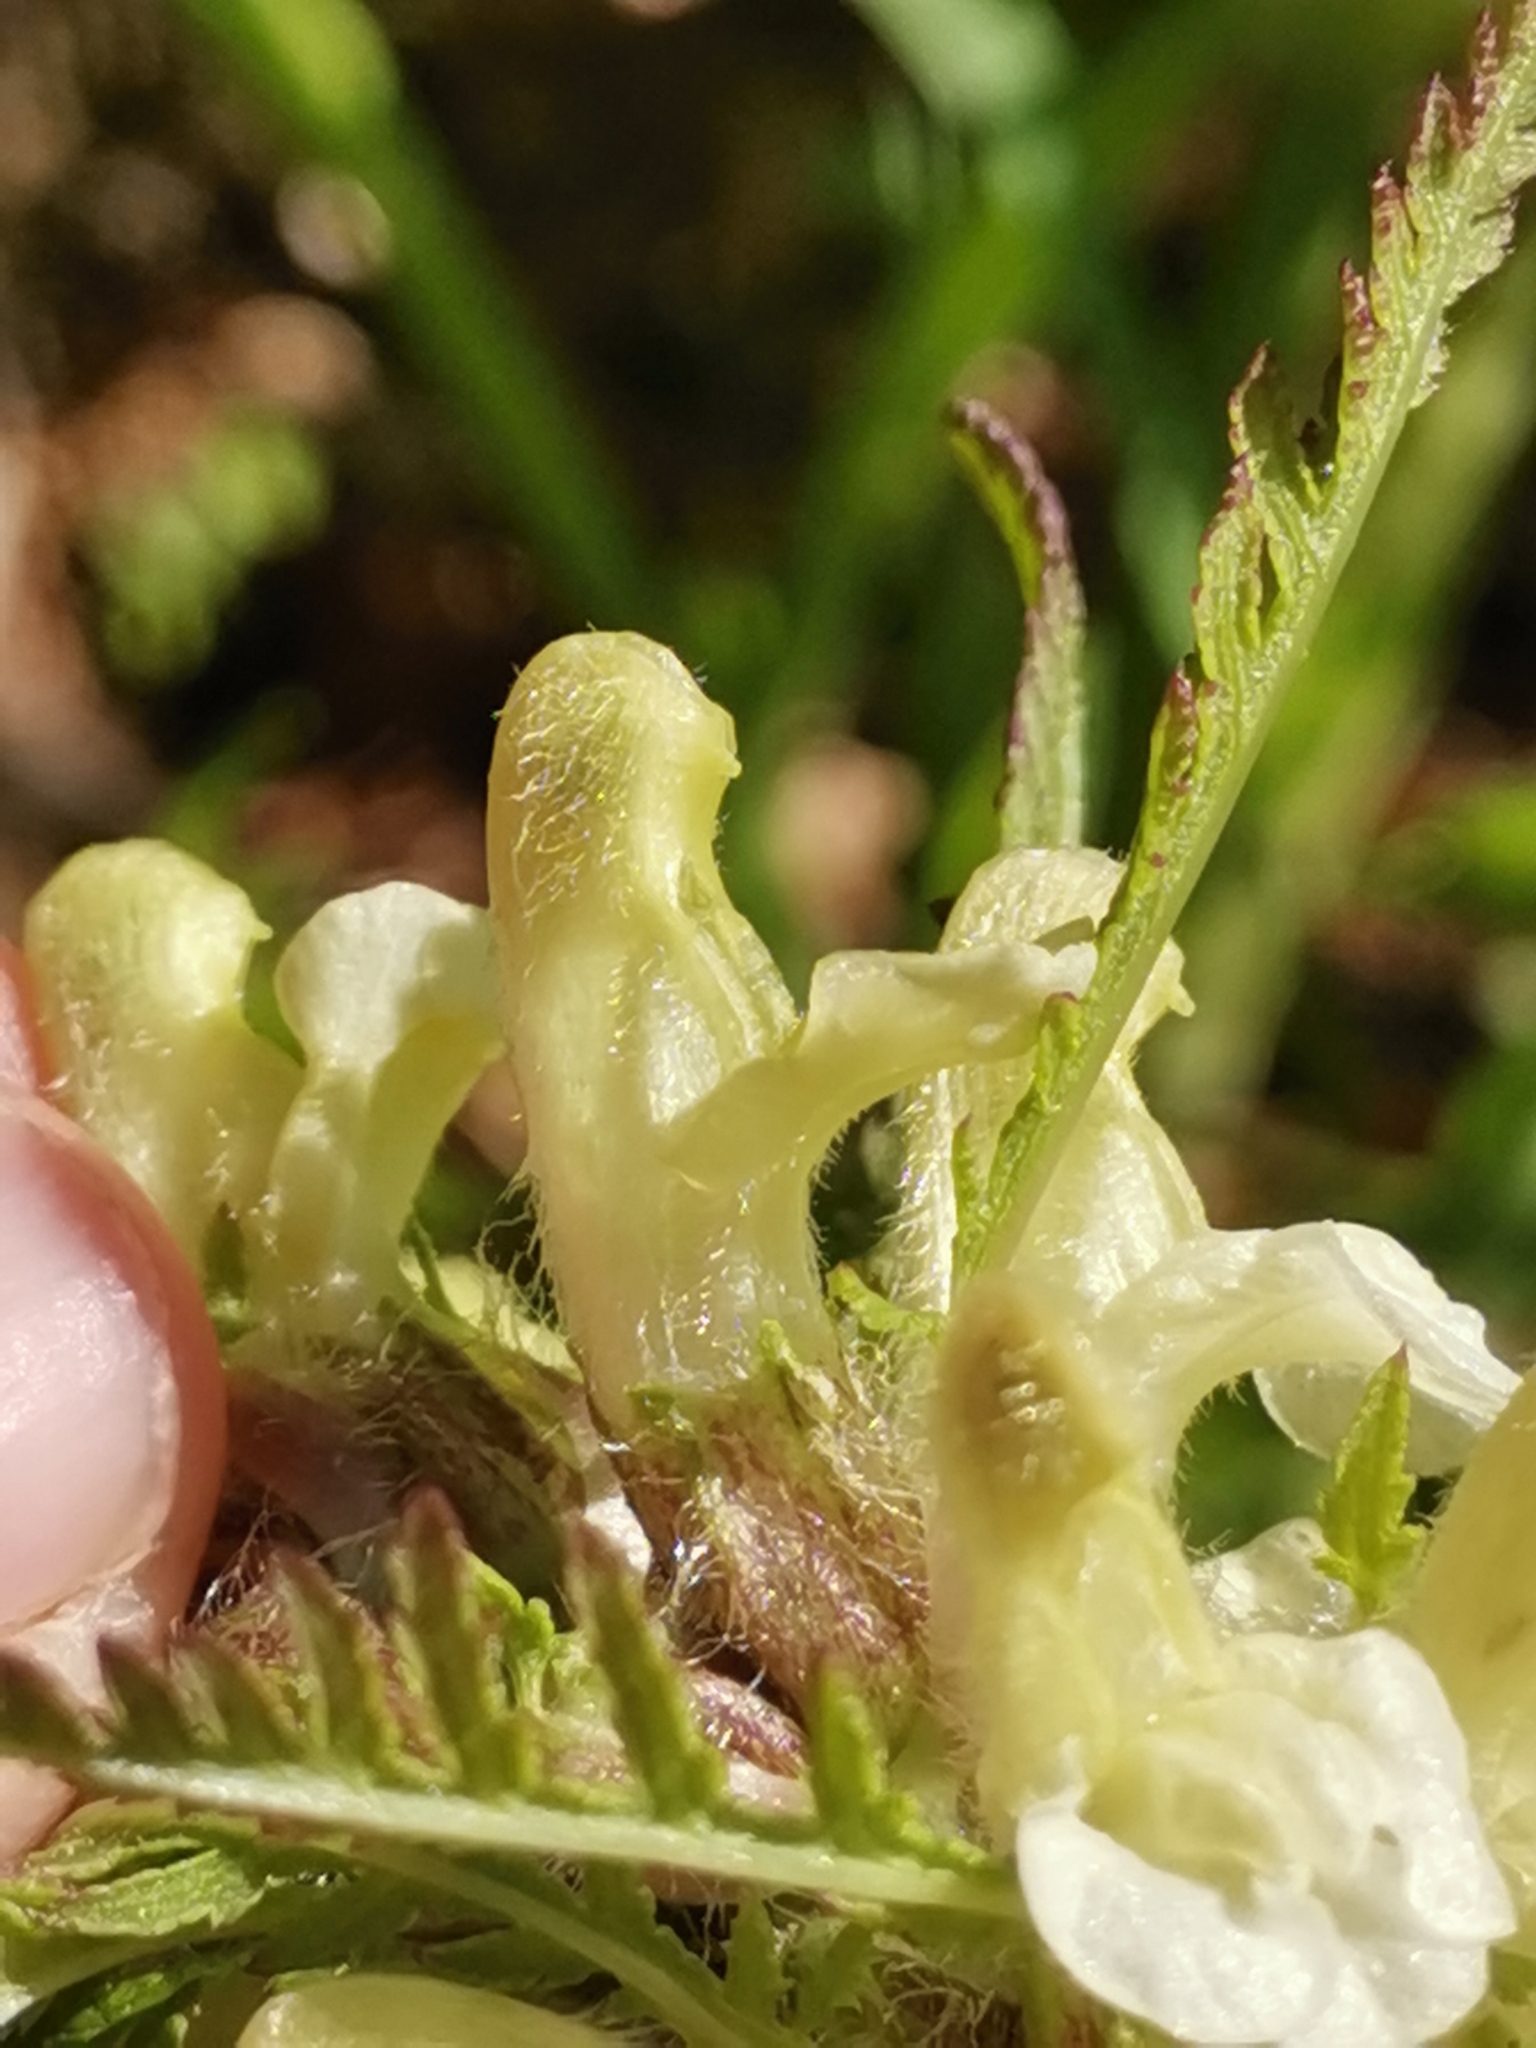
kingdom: Plantae
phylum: Tracheophyta
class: Magnoliopsida
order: Lamiales
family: Orobanchaceae
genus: Pedicularis
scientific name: Pedicularis hoermanniana
